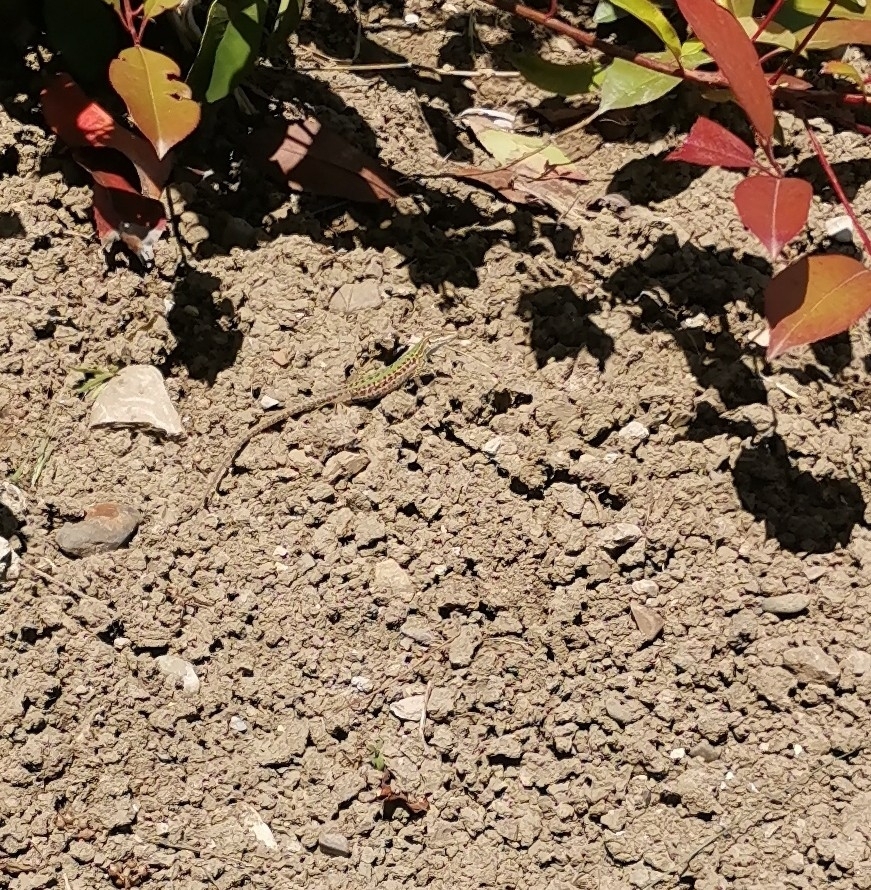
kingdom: Animalia
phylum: Chordata
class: Squamata
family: Lacertidae
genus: Podarcis
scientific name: Podarcis siculus
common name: Italian wall lizard
